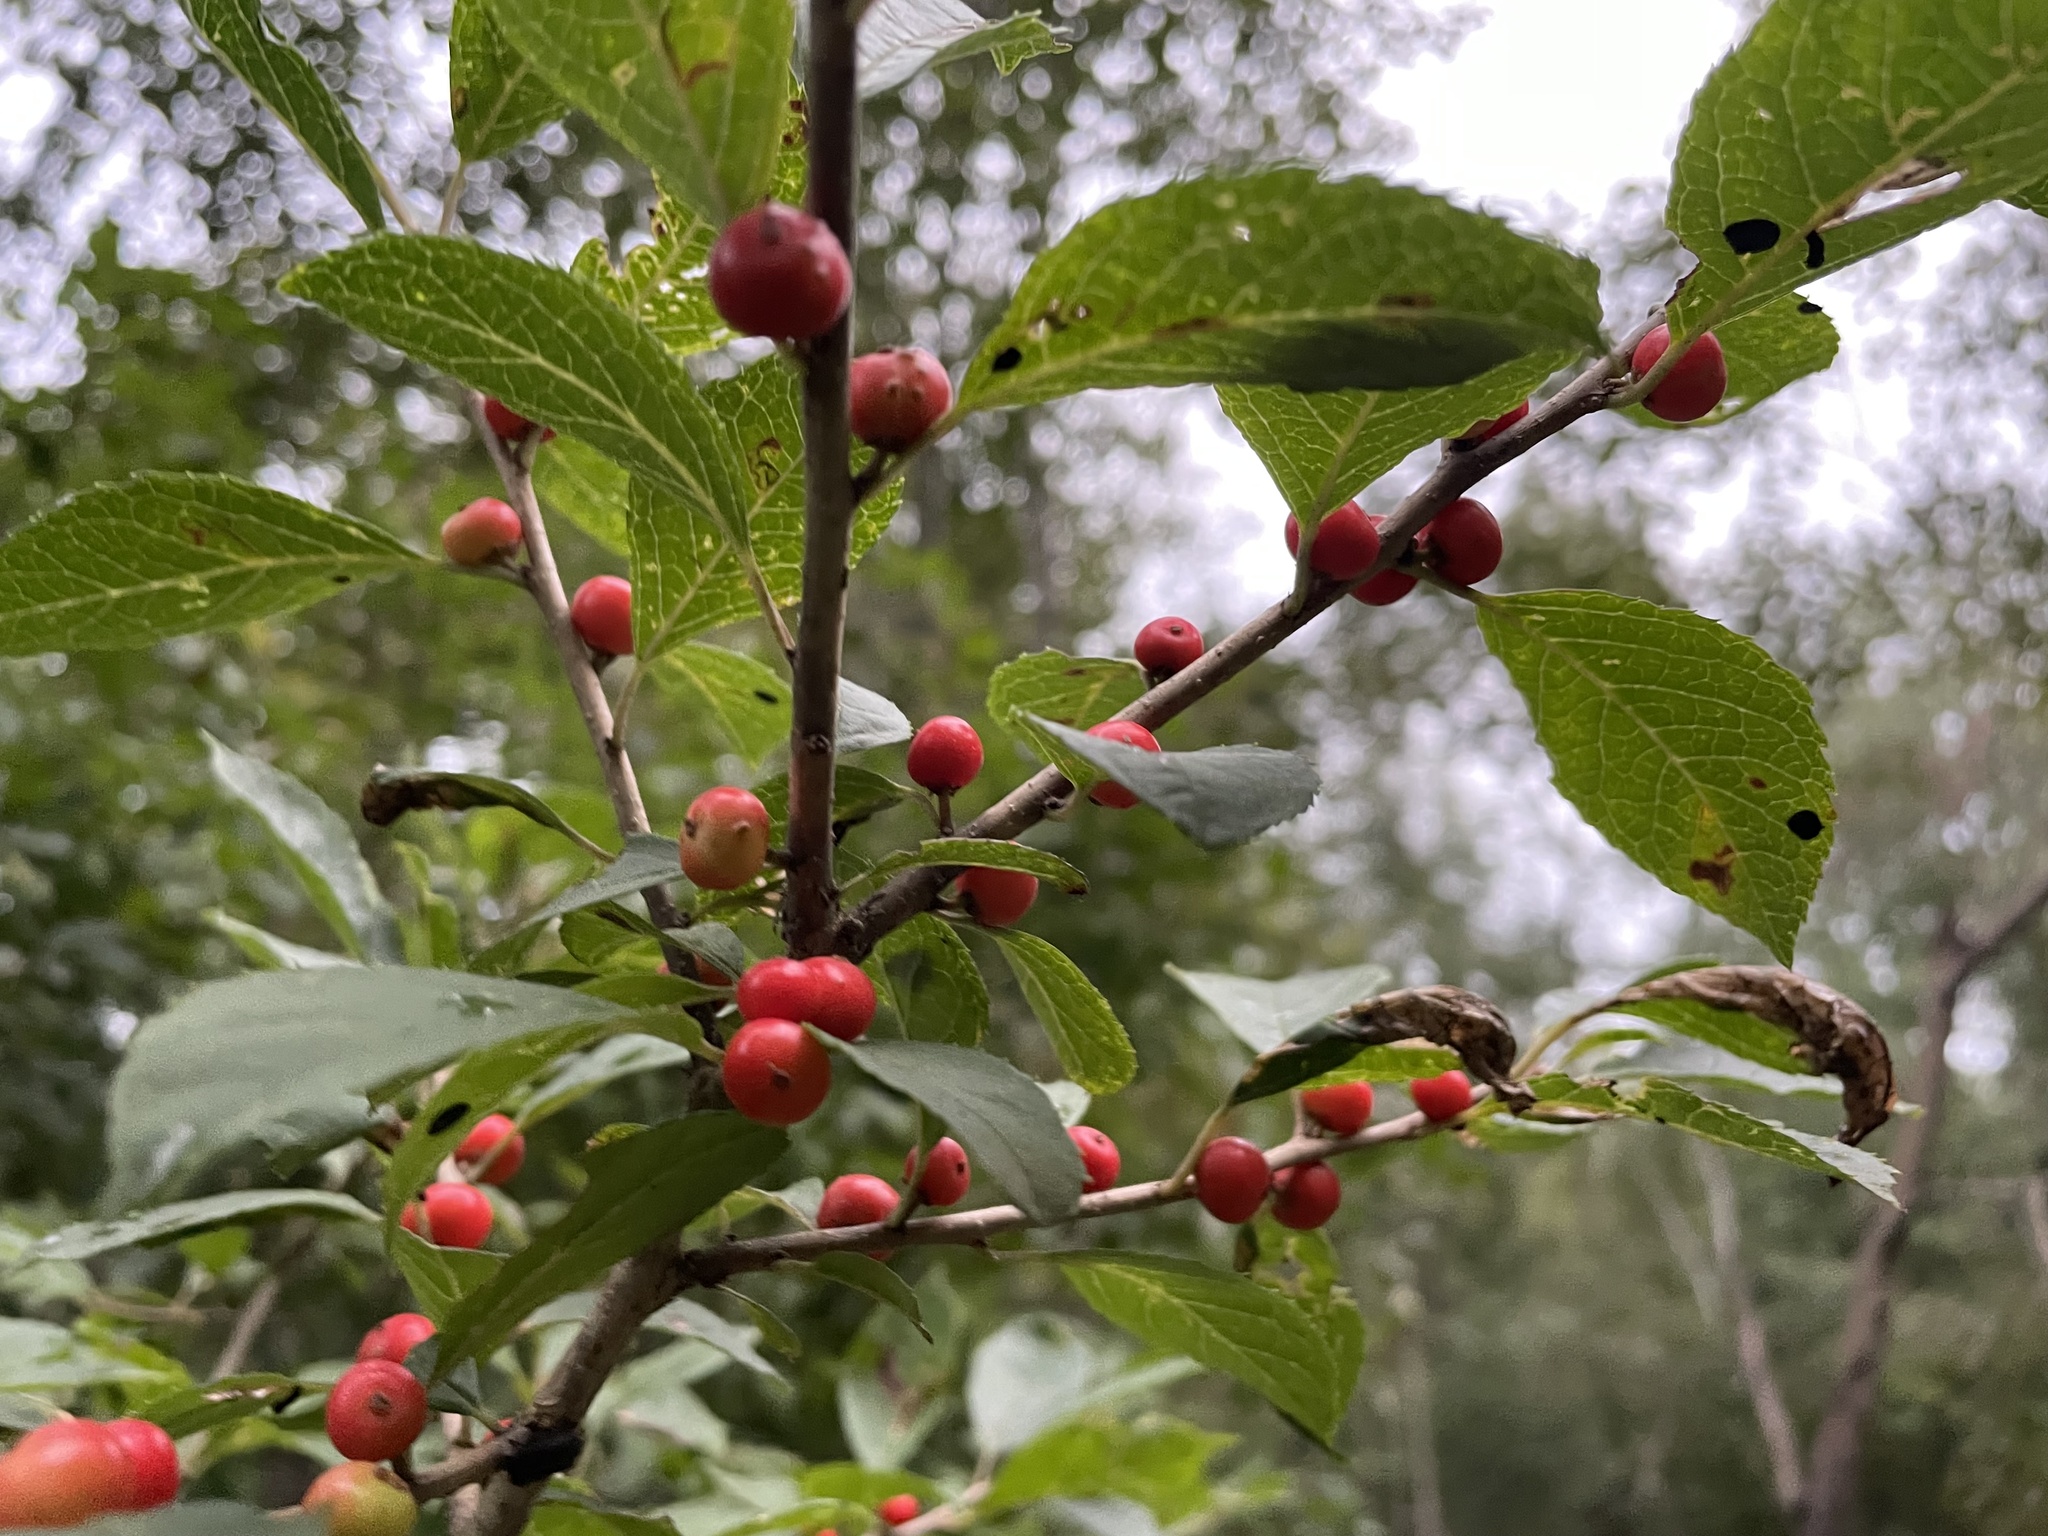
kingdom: Plantae
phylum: Tracheophyta
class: Magnoliopsida
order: Aquifoliales
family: Aquifoliaceae
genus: Ilex
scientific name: Ilex verticillata
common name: Virginia winterberry
